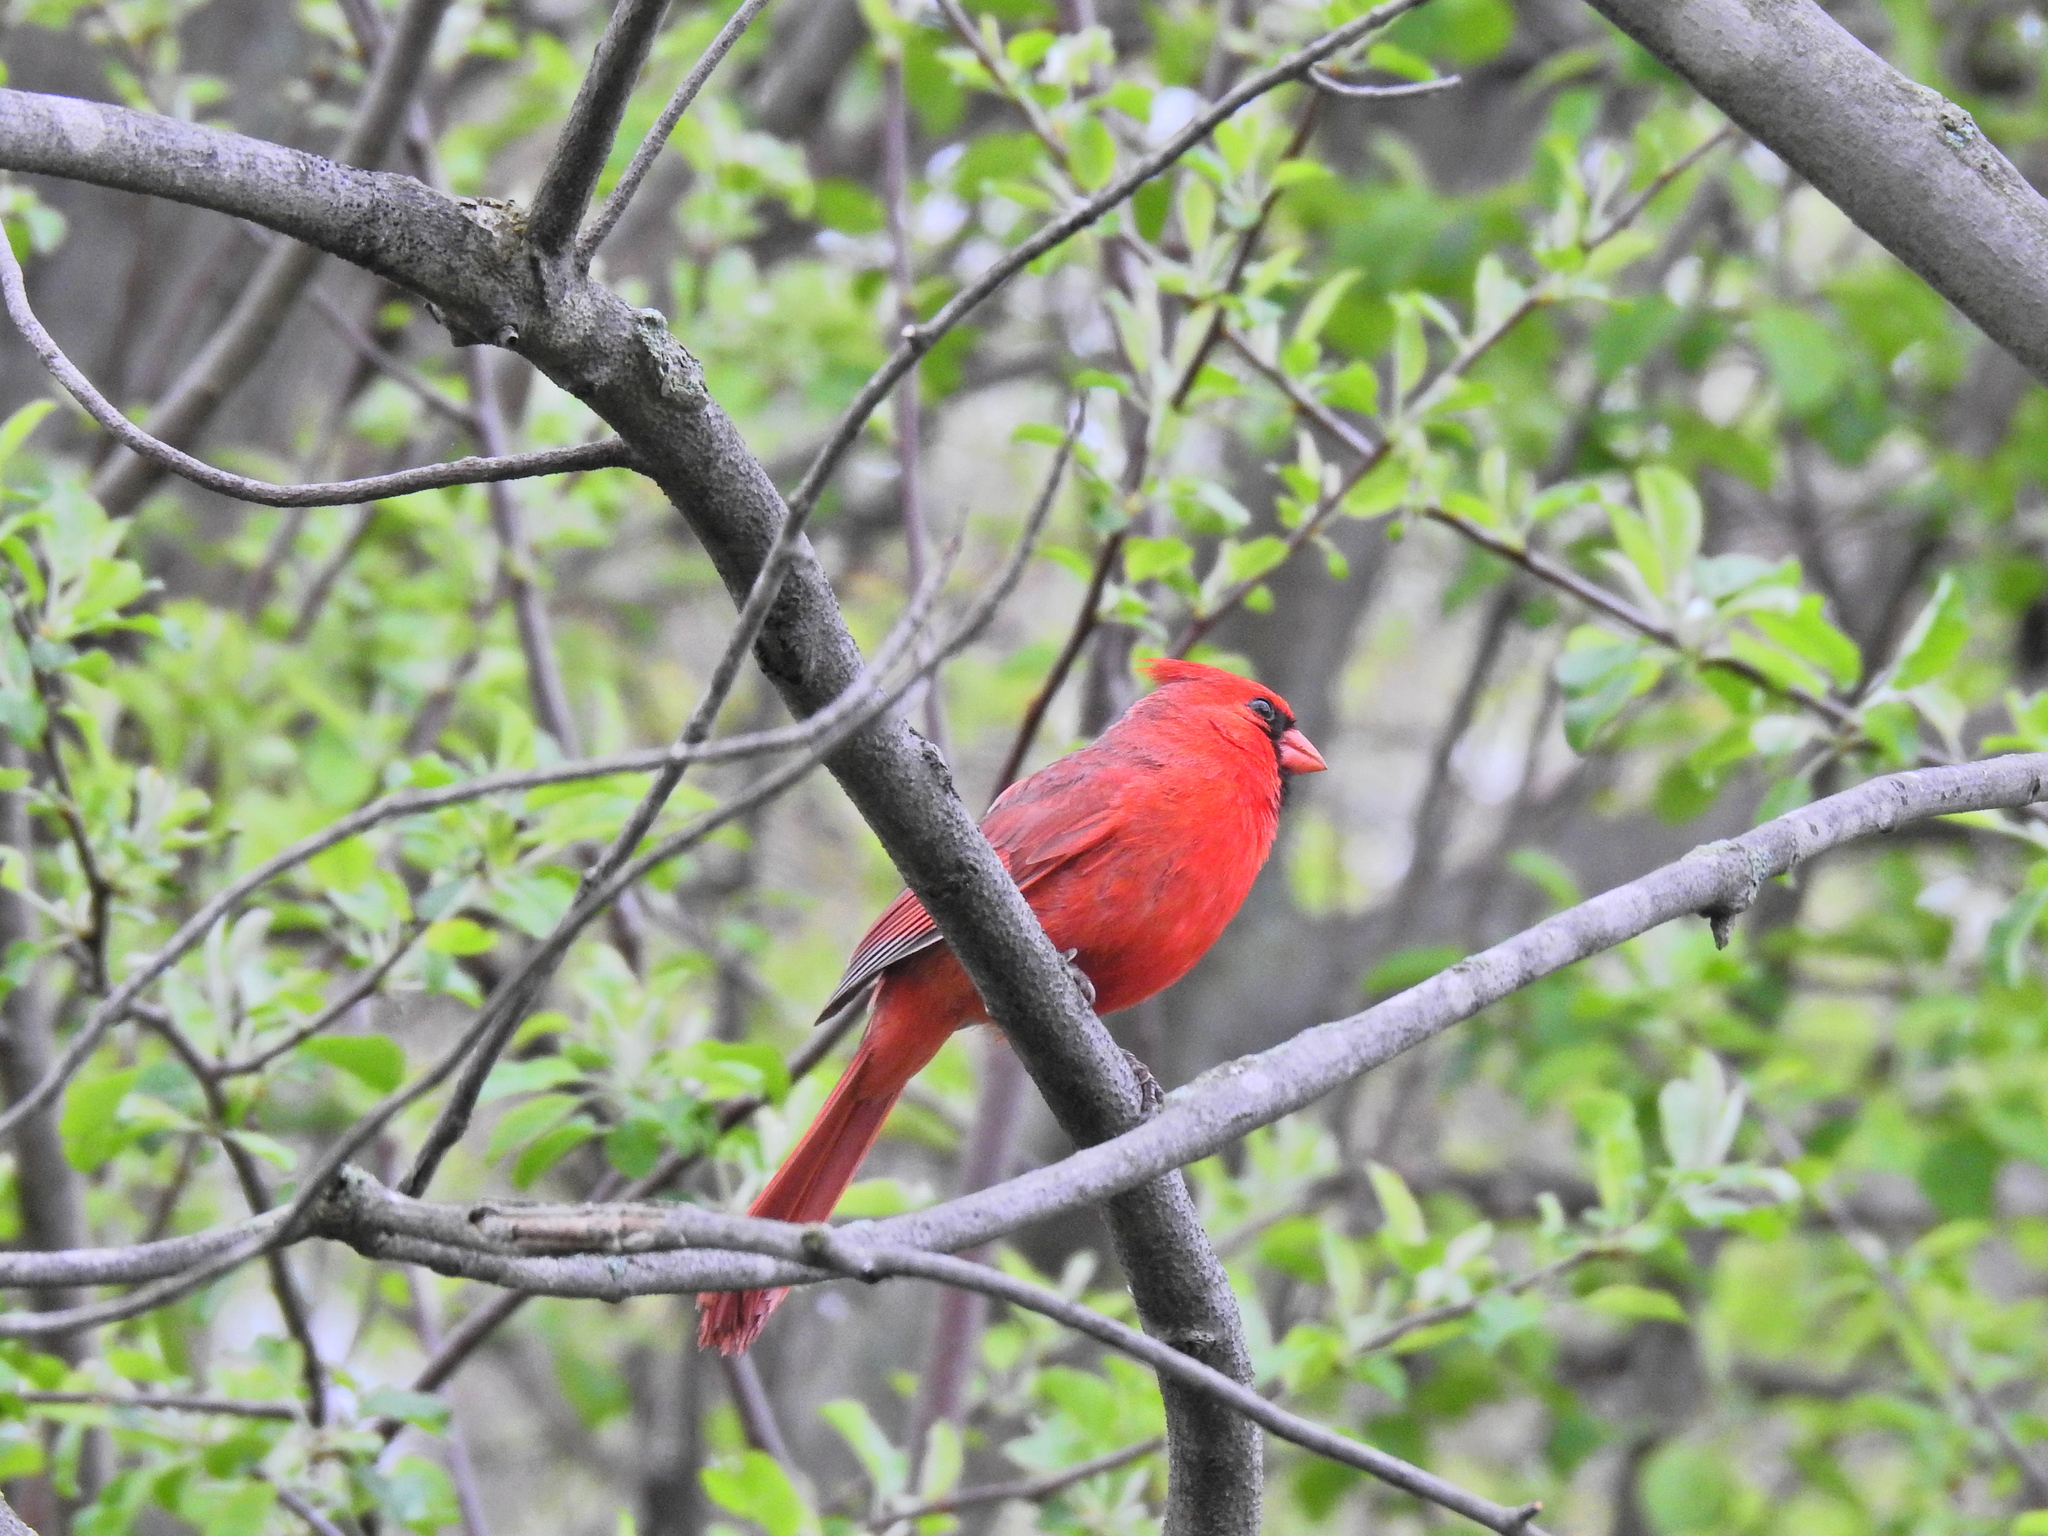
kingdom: Animalia
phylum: Chordata
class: Aves
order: Passeriformes
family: Cardinalidae
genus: Cardinalis
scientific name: Cardinalis cardinalis
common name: Northern cardinal
